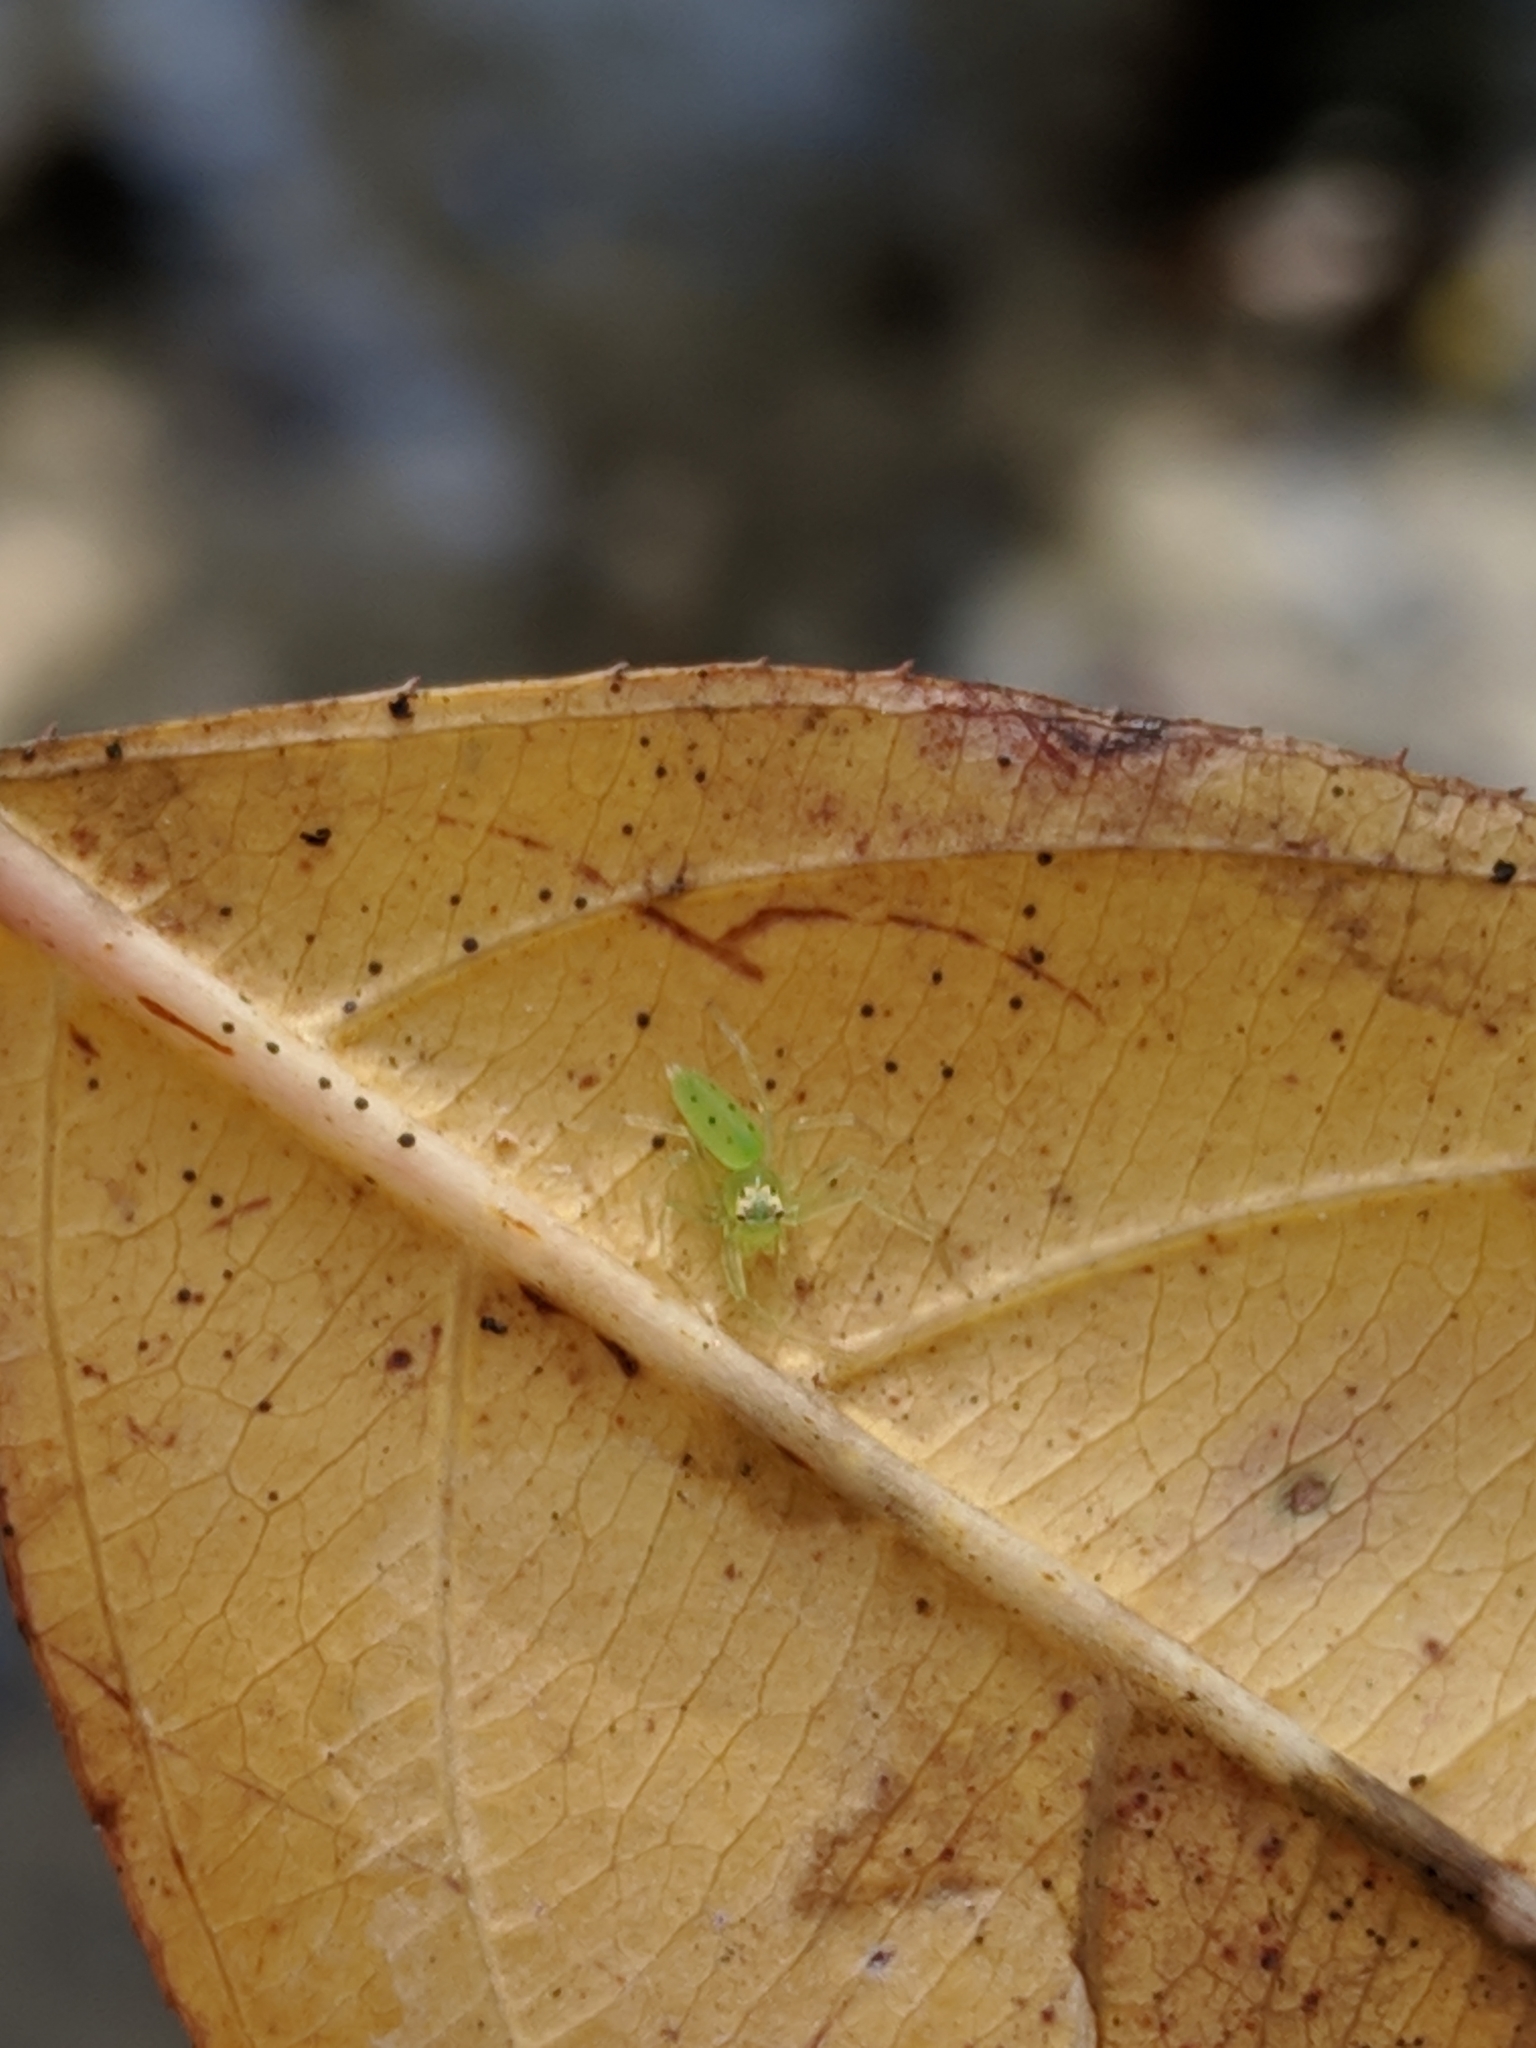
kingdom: Plantae
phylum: Tracheophyta
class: Magnoliopsida
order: Saxifragales
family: Iteaceae
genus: Itea
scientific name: Itea virginica
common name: Sweetspire
